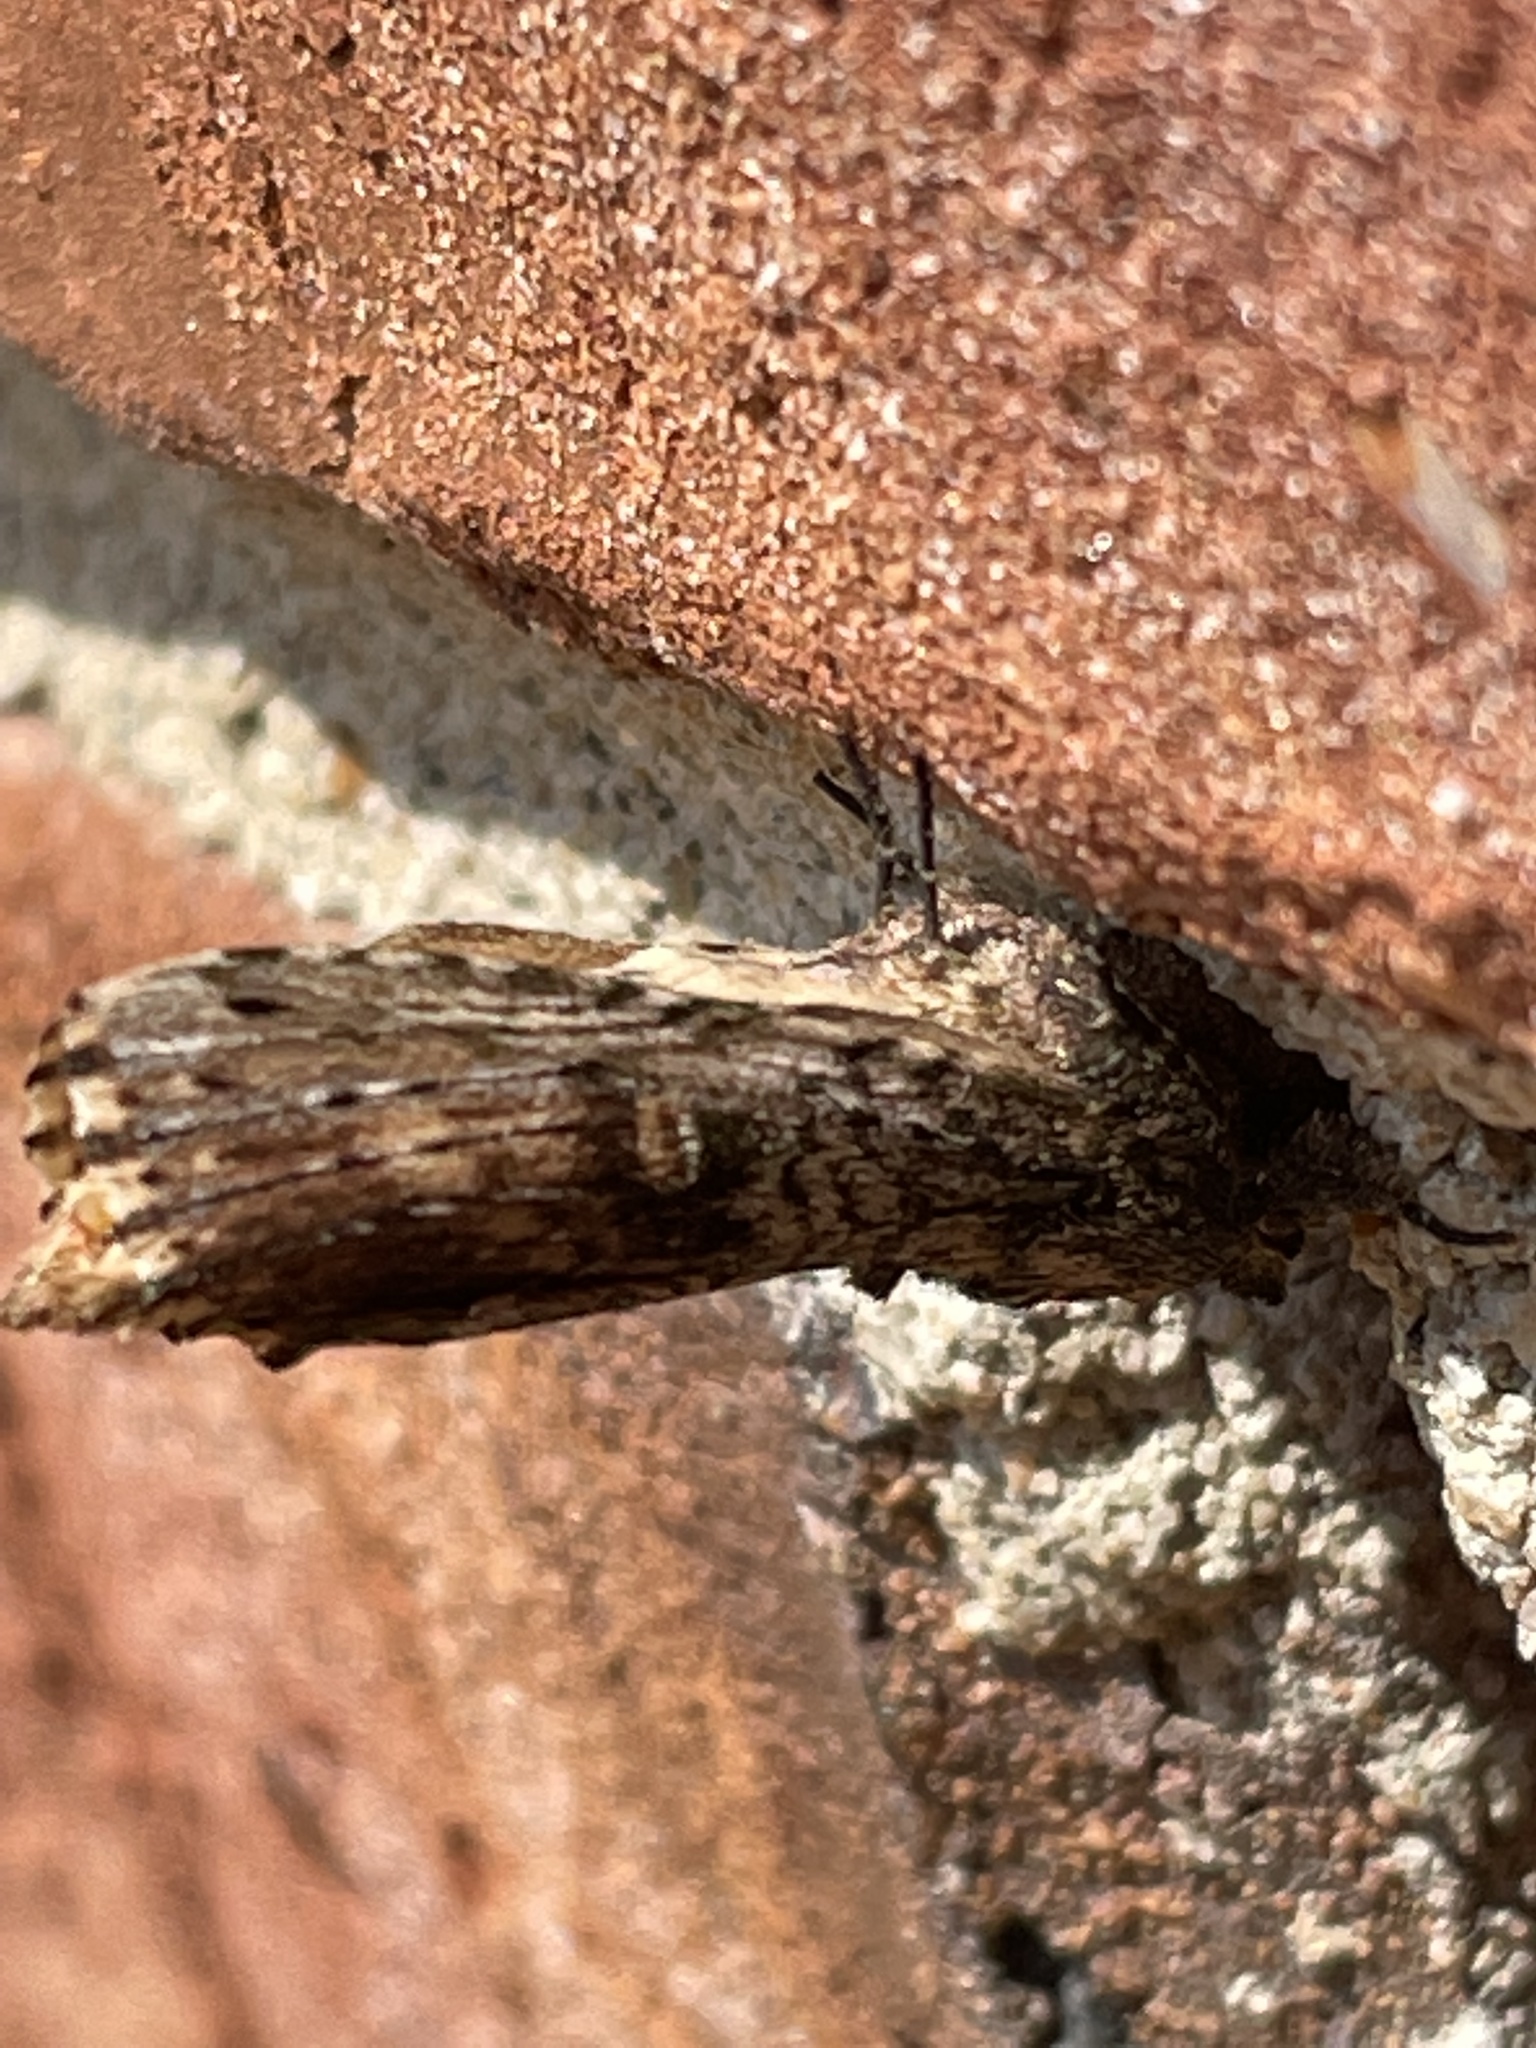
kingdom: Animalia
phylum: Arthropoda
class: Insecta
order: Lepidoptera
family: Notodontidae
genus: Schizura
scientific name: Schizura ipomaeae
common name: Morning-glory prominent
